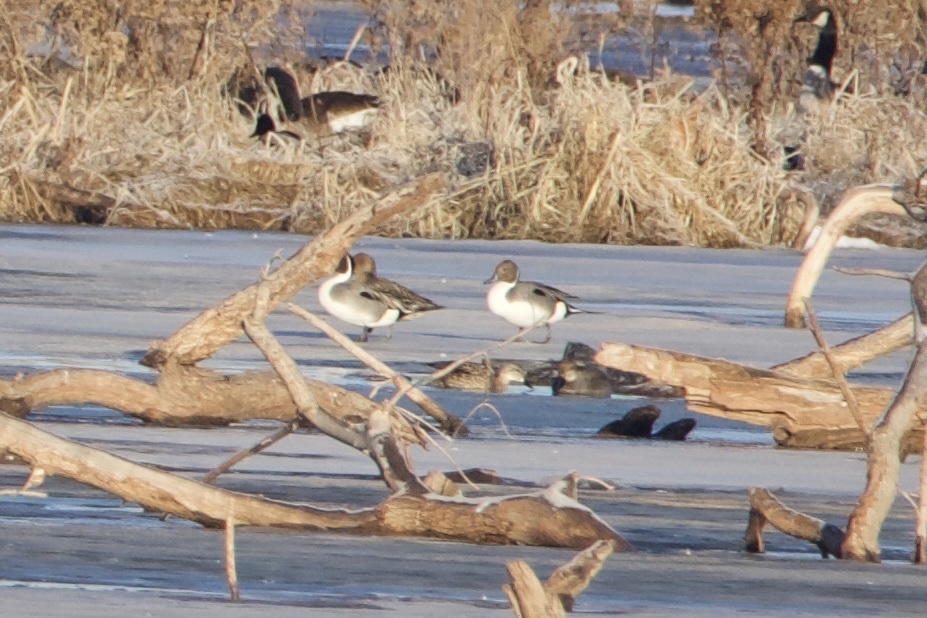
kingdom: Animalia
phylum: Chordata
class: Aves
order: Anseriformes
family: Anatidae
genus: Anas
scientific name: Anas acuta
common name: Northern pintail
